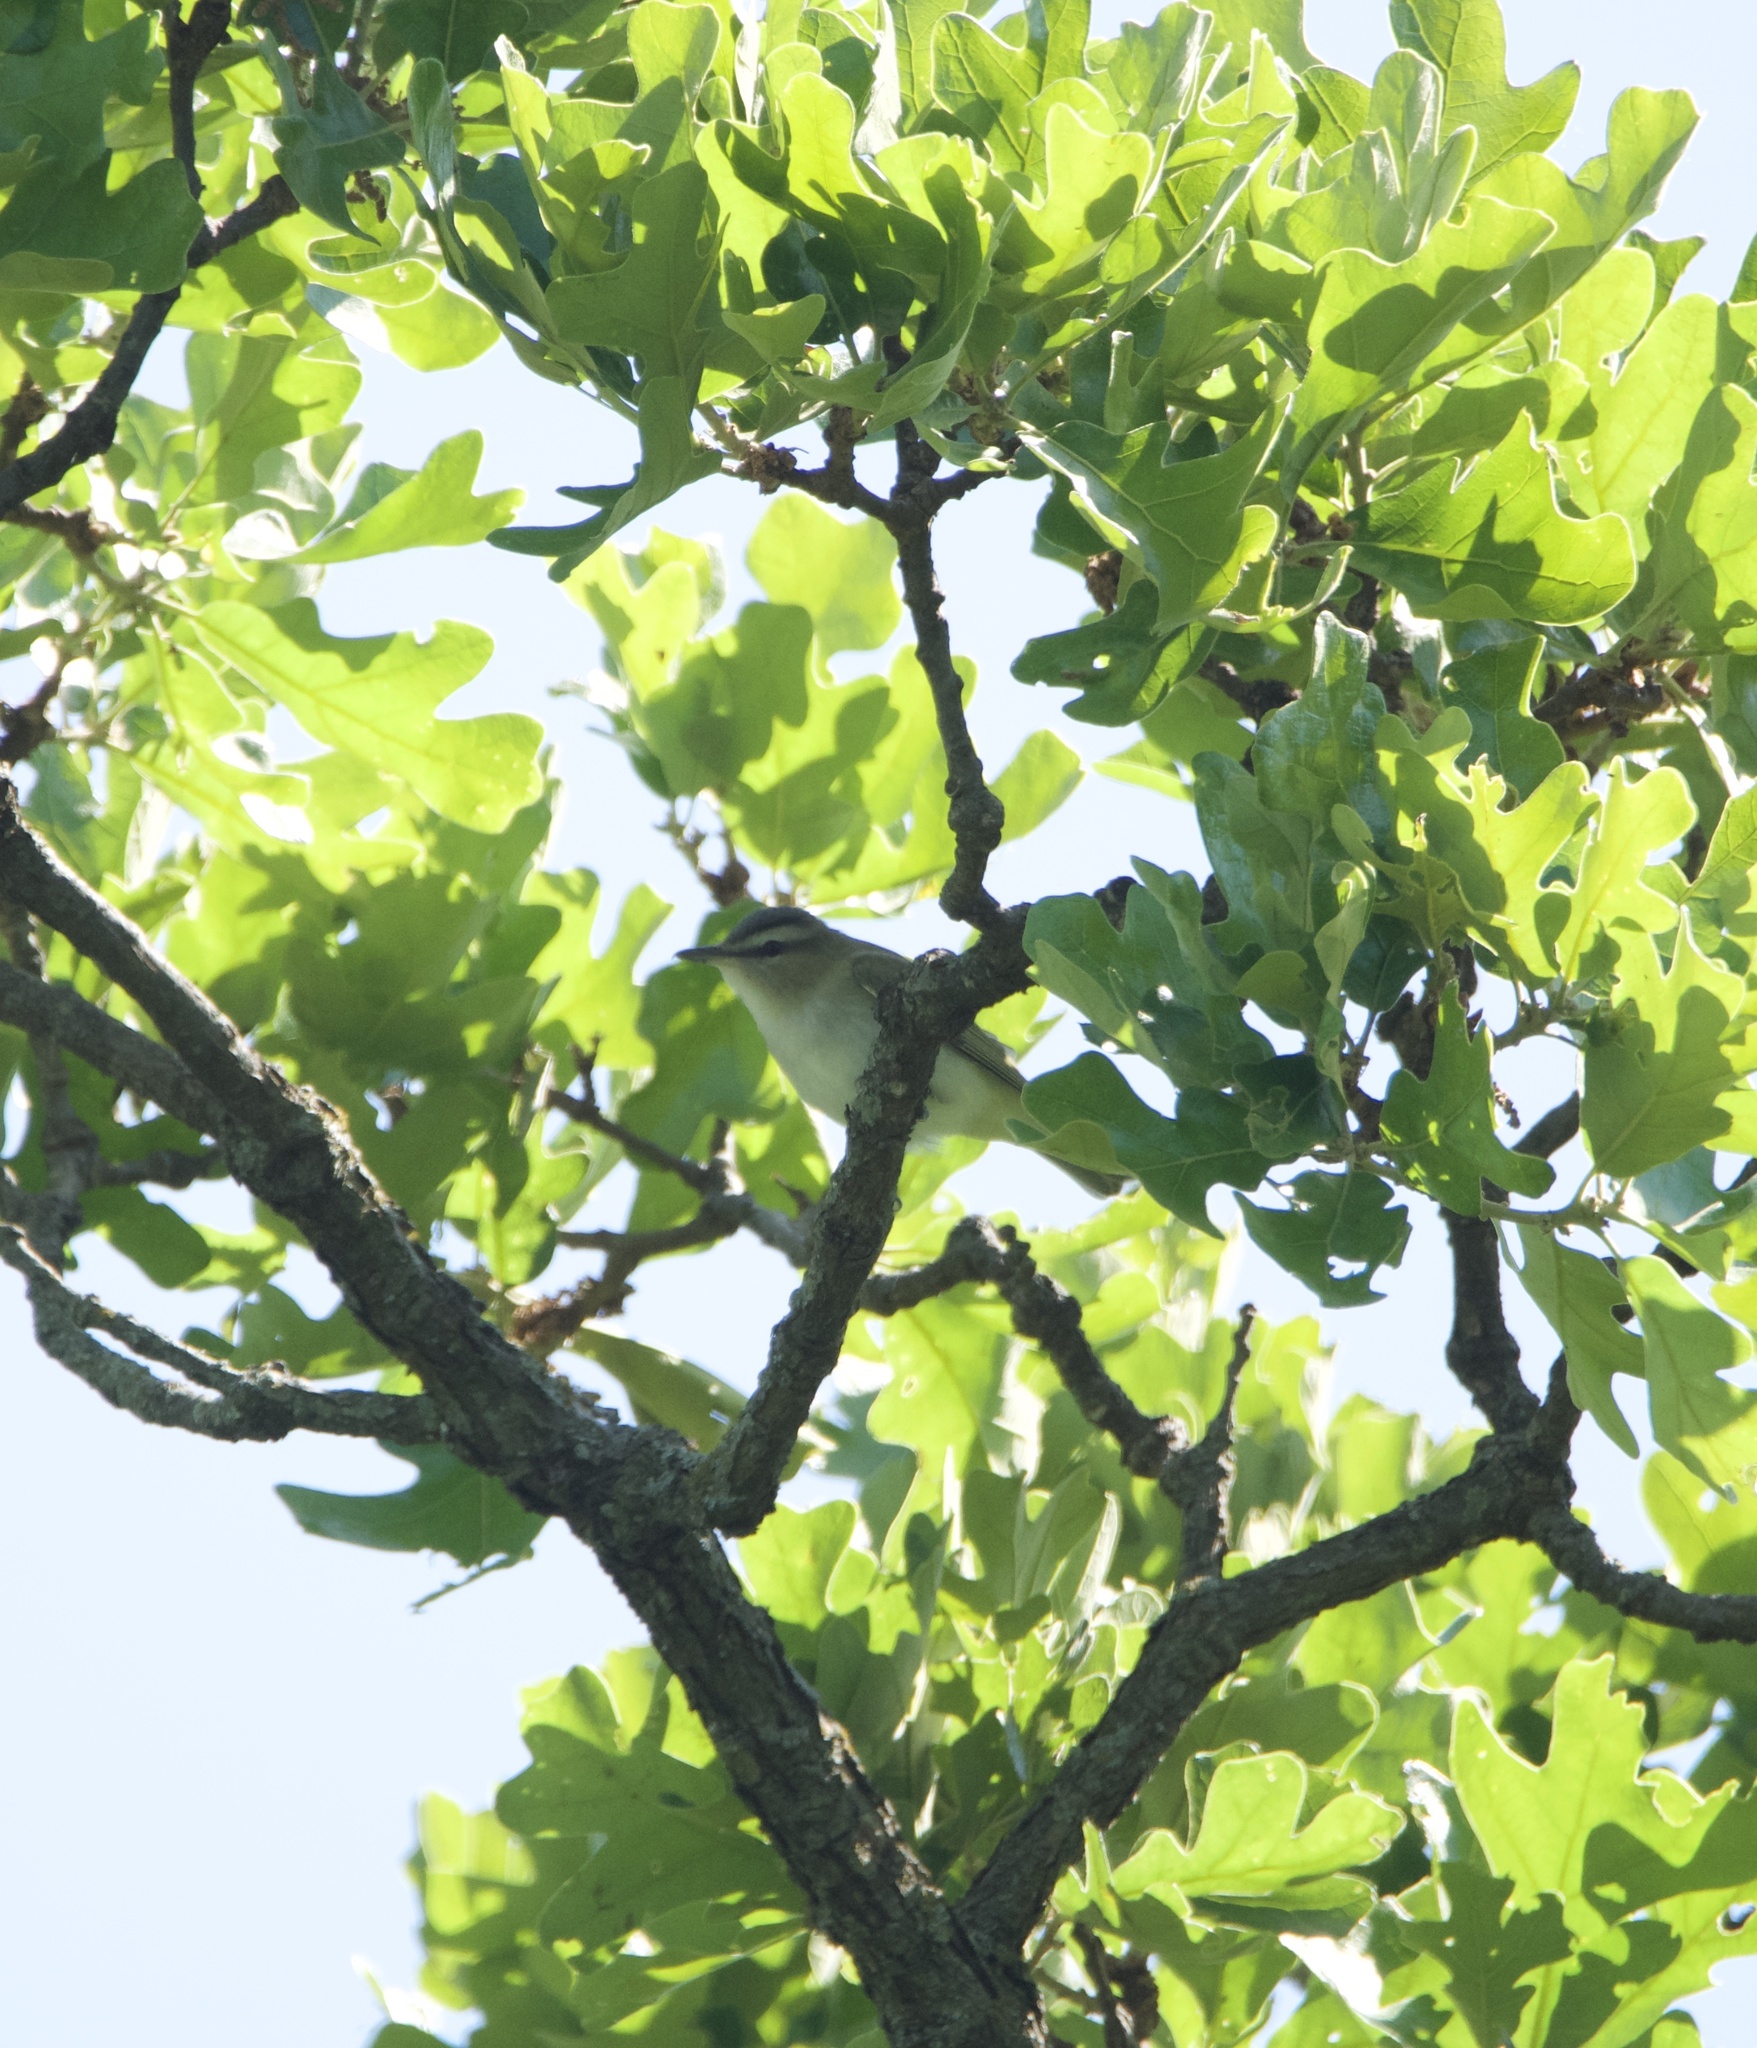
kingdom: Animalia
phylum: Chordata
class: Aves
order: Passeriformes
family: Vireonidae
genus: Vireo
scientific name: Vireo olivaceus
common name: Red-eyed vireo
